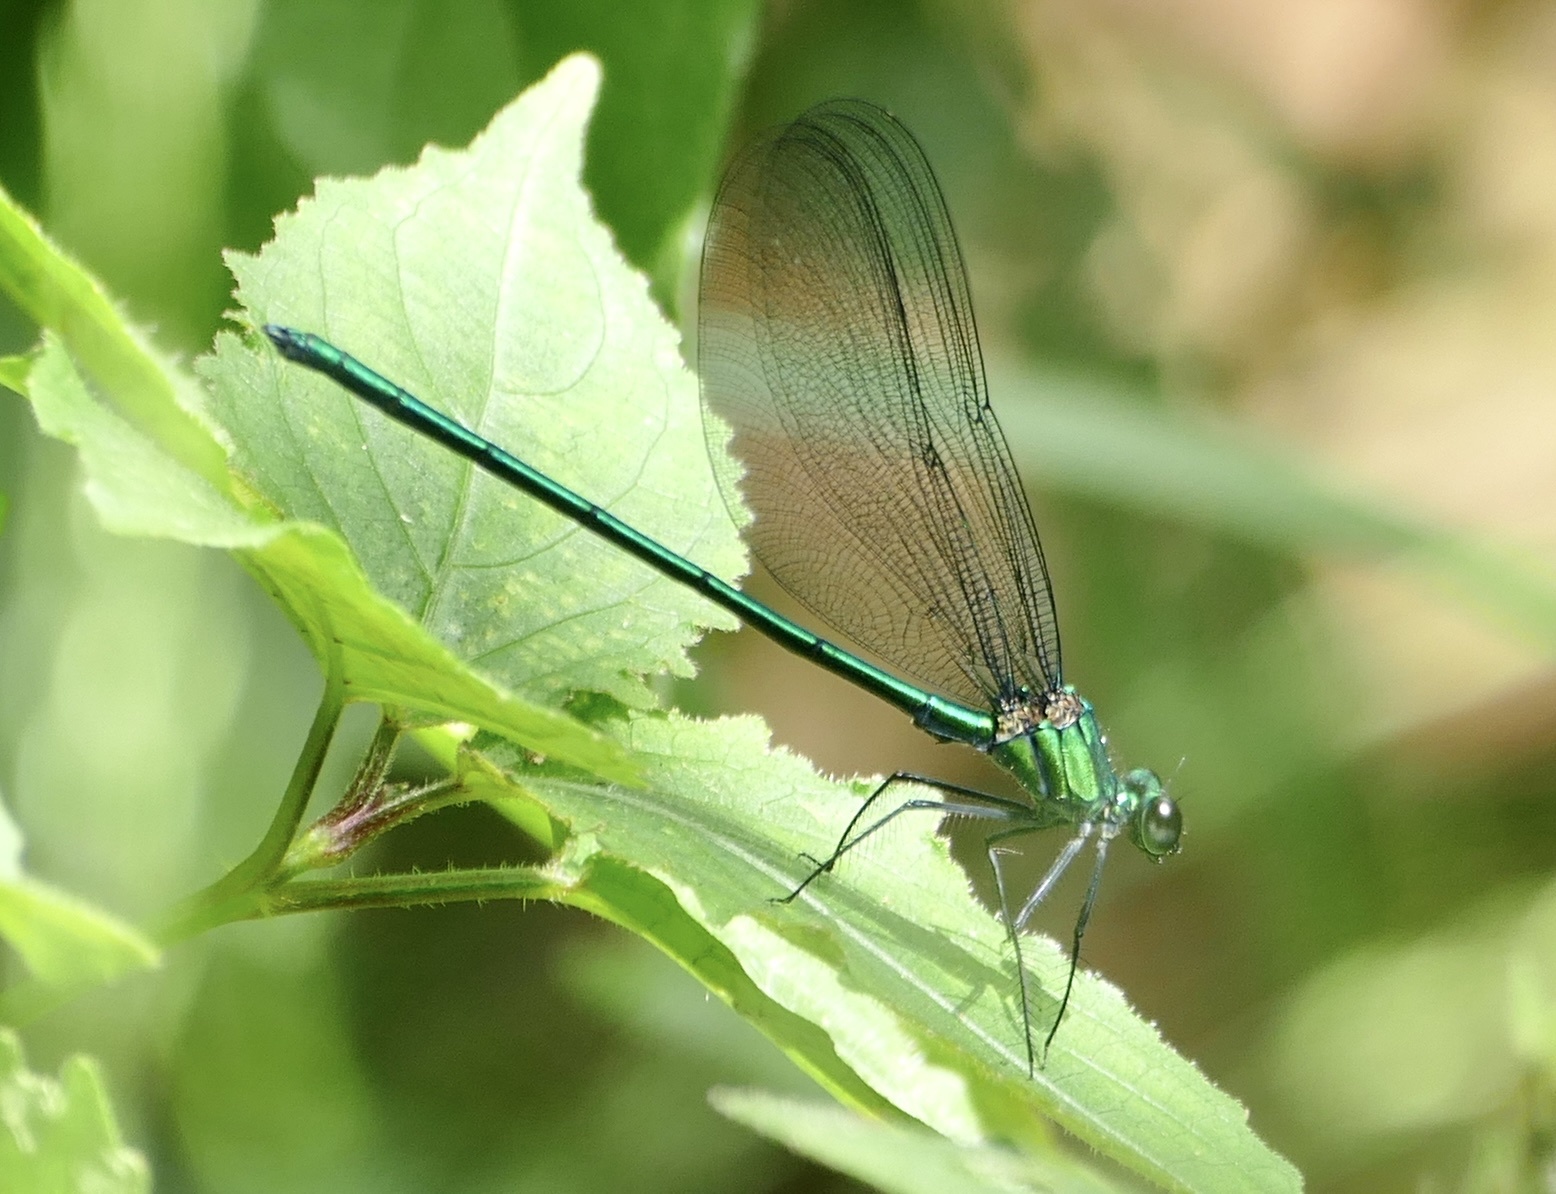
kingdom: Animalia
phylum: Arthropoda
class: Insecta
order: Odonata
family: Calopterygidae
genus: Umma
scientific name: Umma cincta
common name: Broad-winged sparklewing
